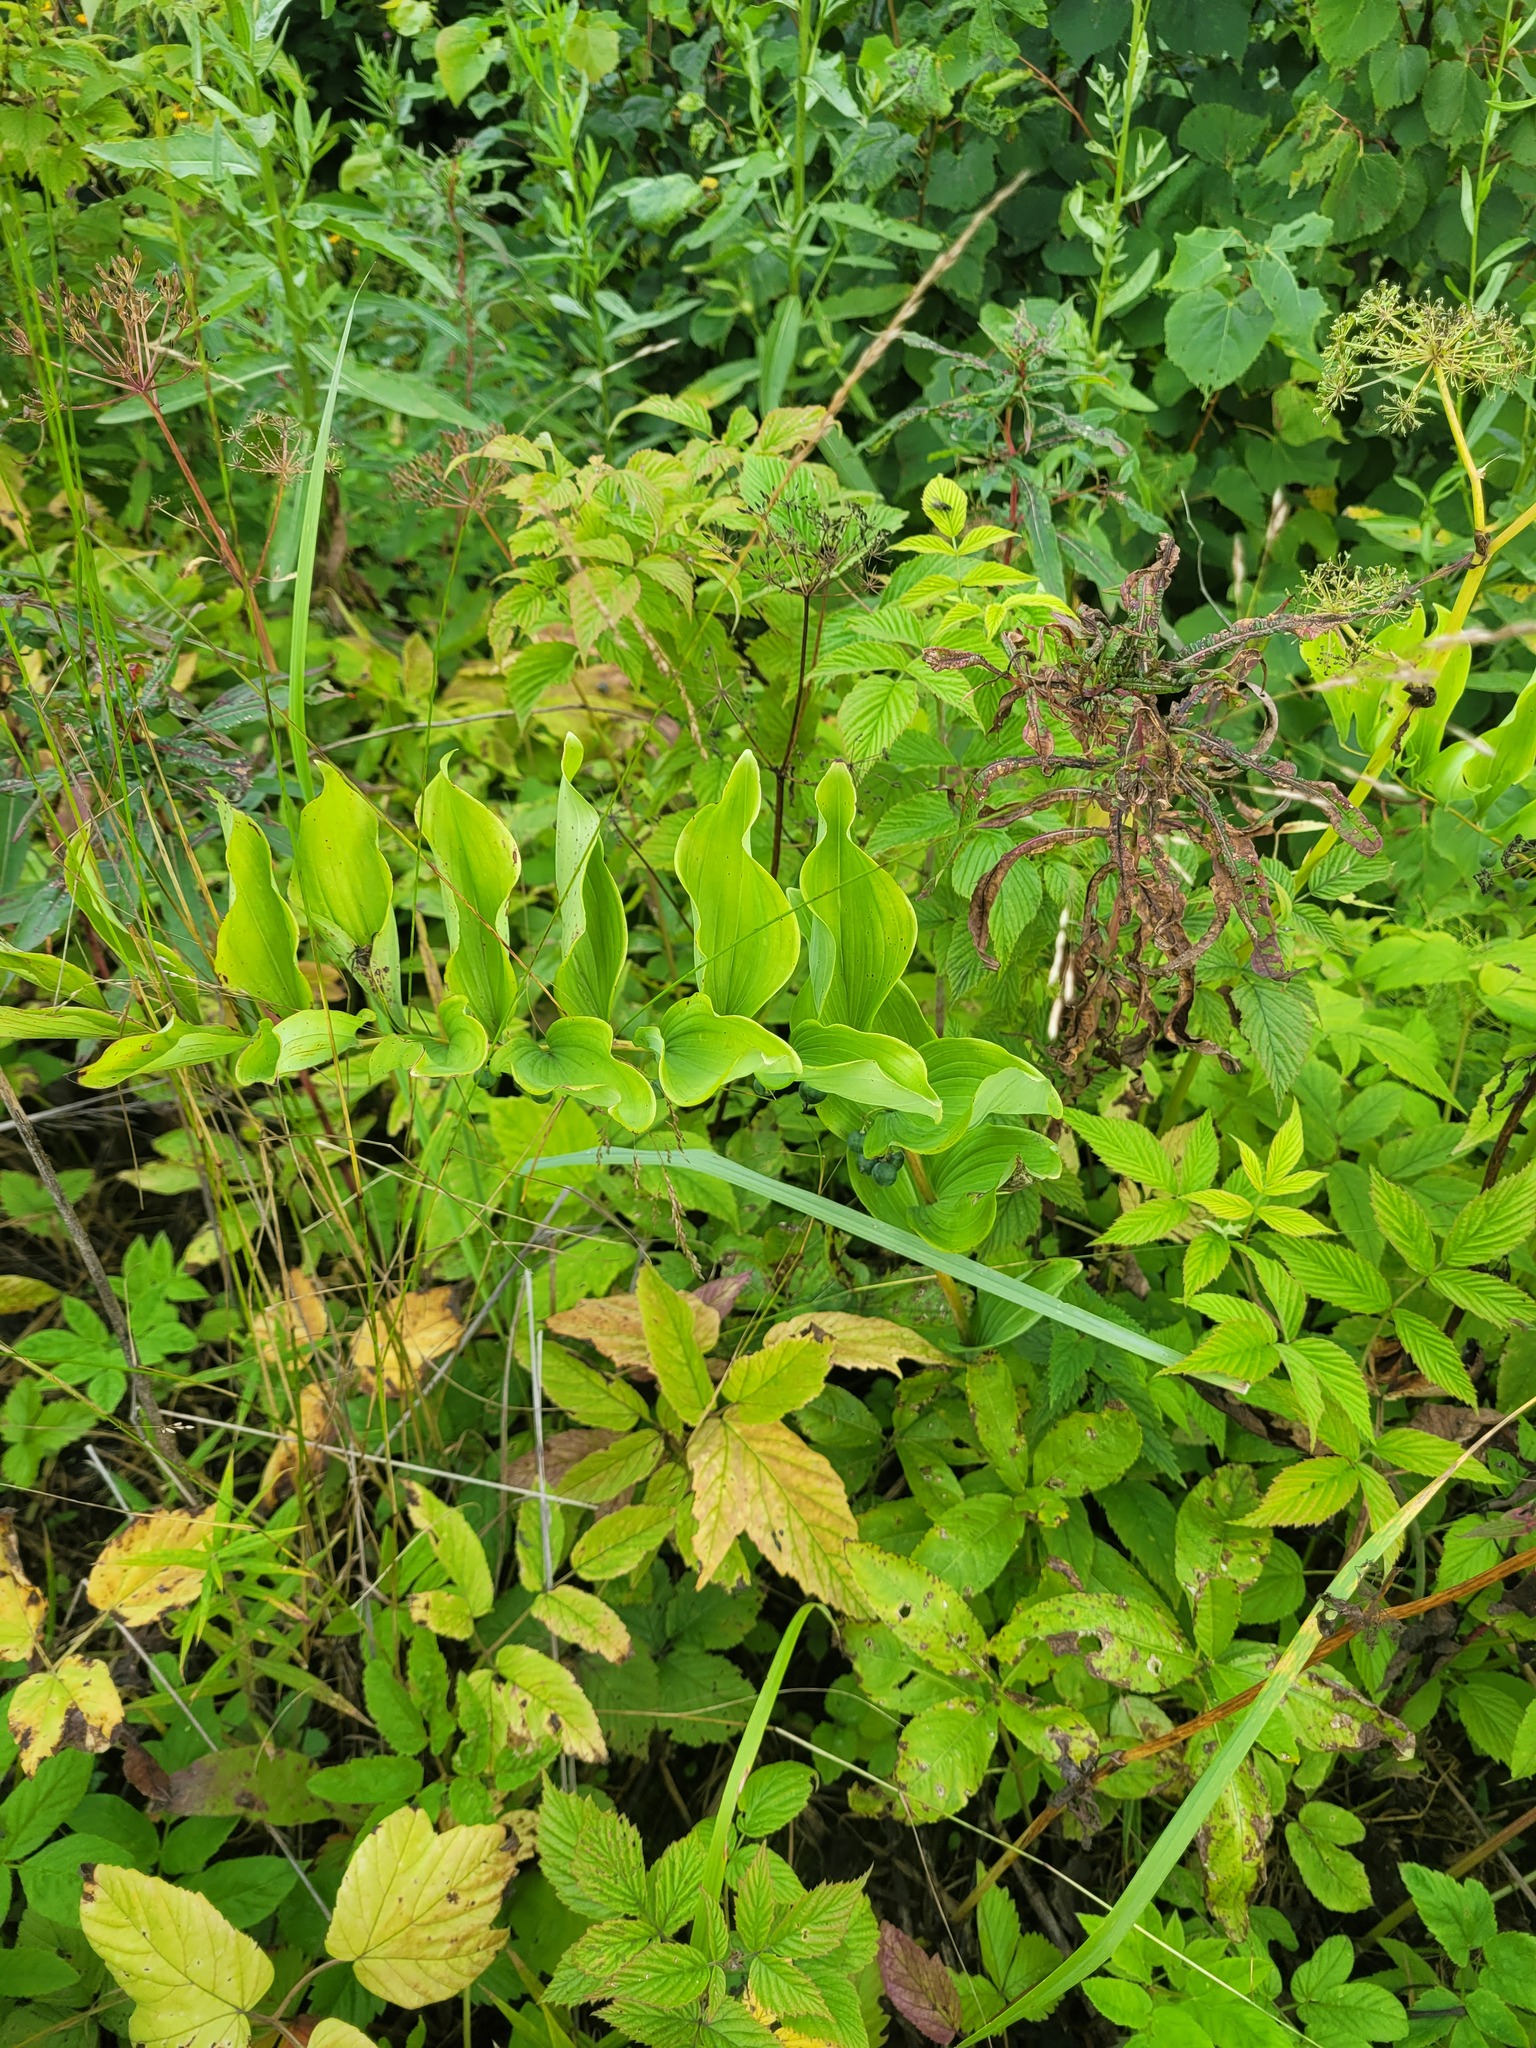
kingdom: Plantae
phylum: Tracheophyta
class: Liliopsida
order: Asparagales
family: Asparagaceae
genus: Polygonatum
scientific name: Polygonatum multiflorum
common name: Solomon's-seal
